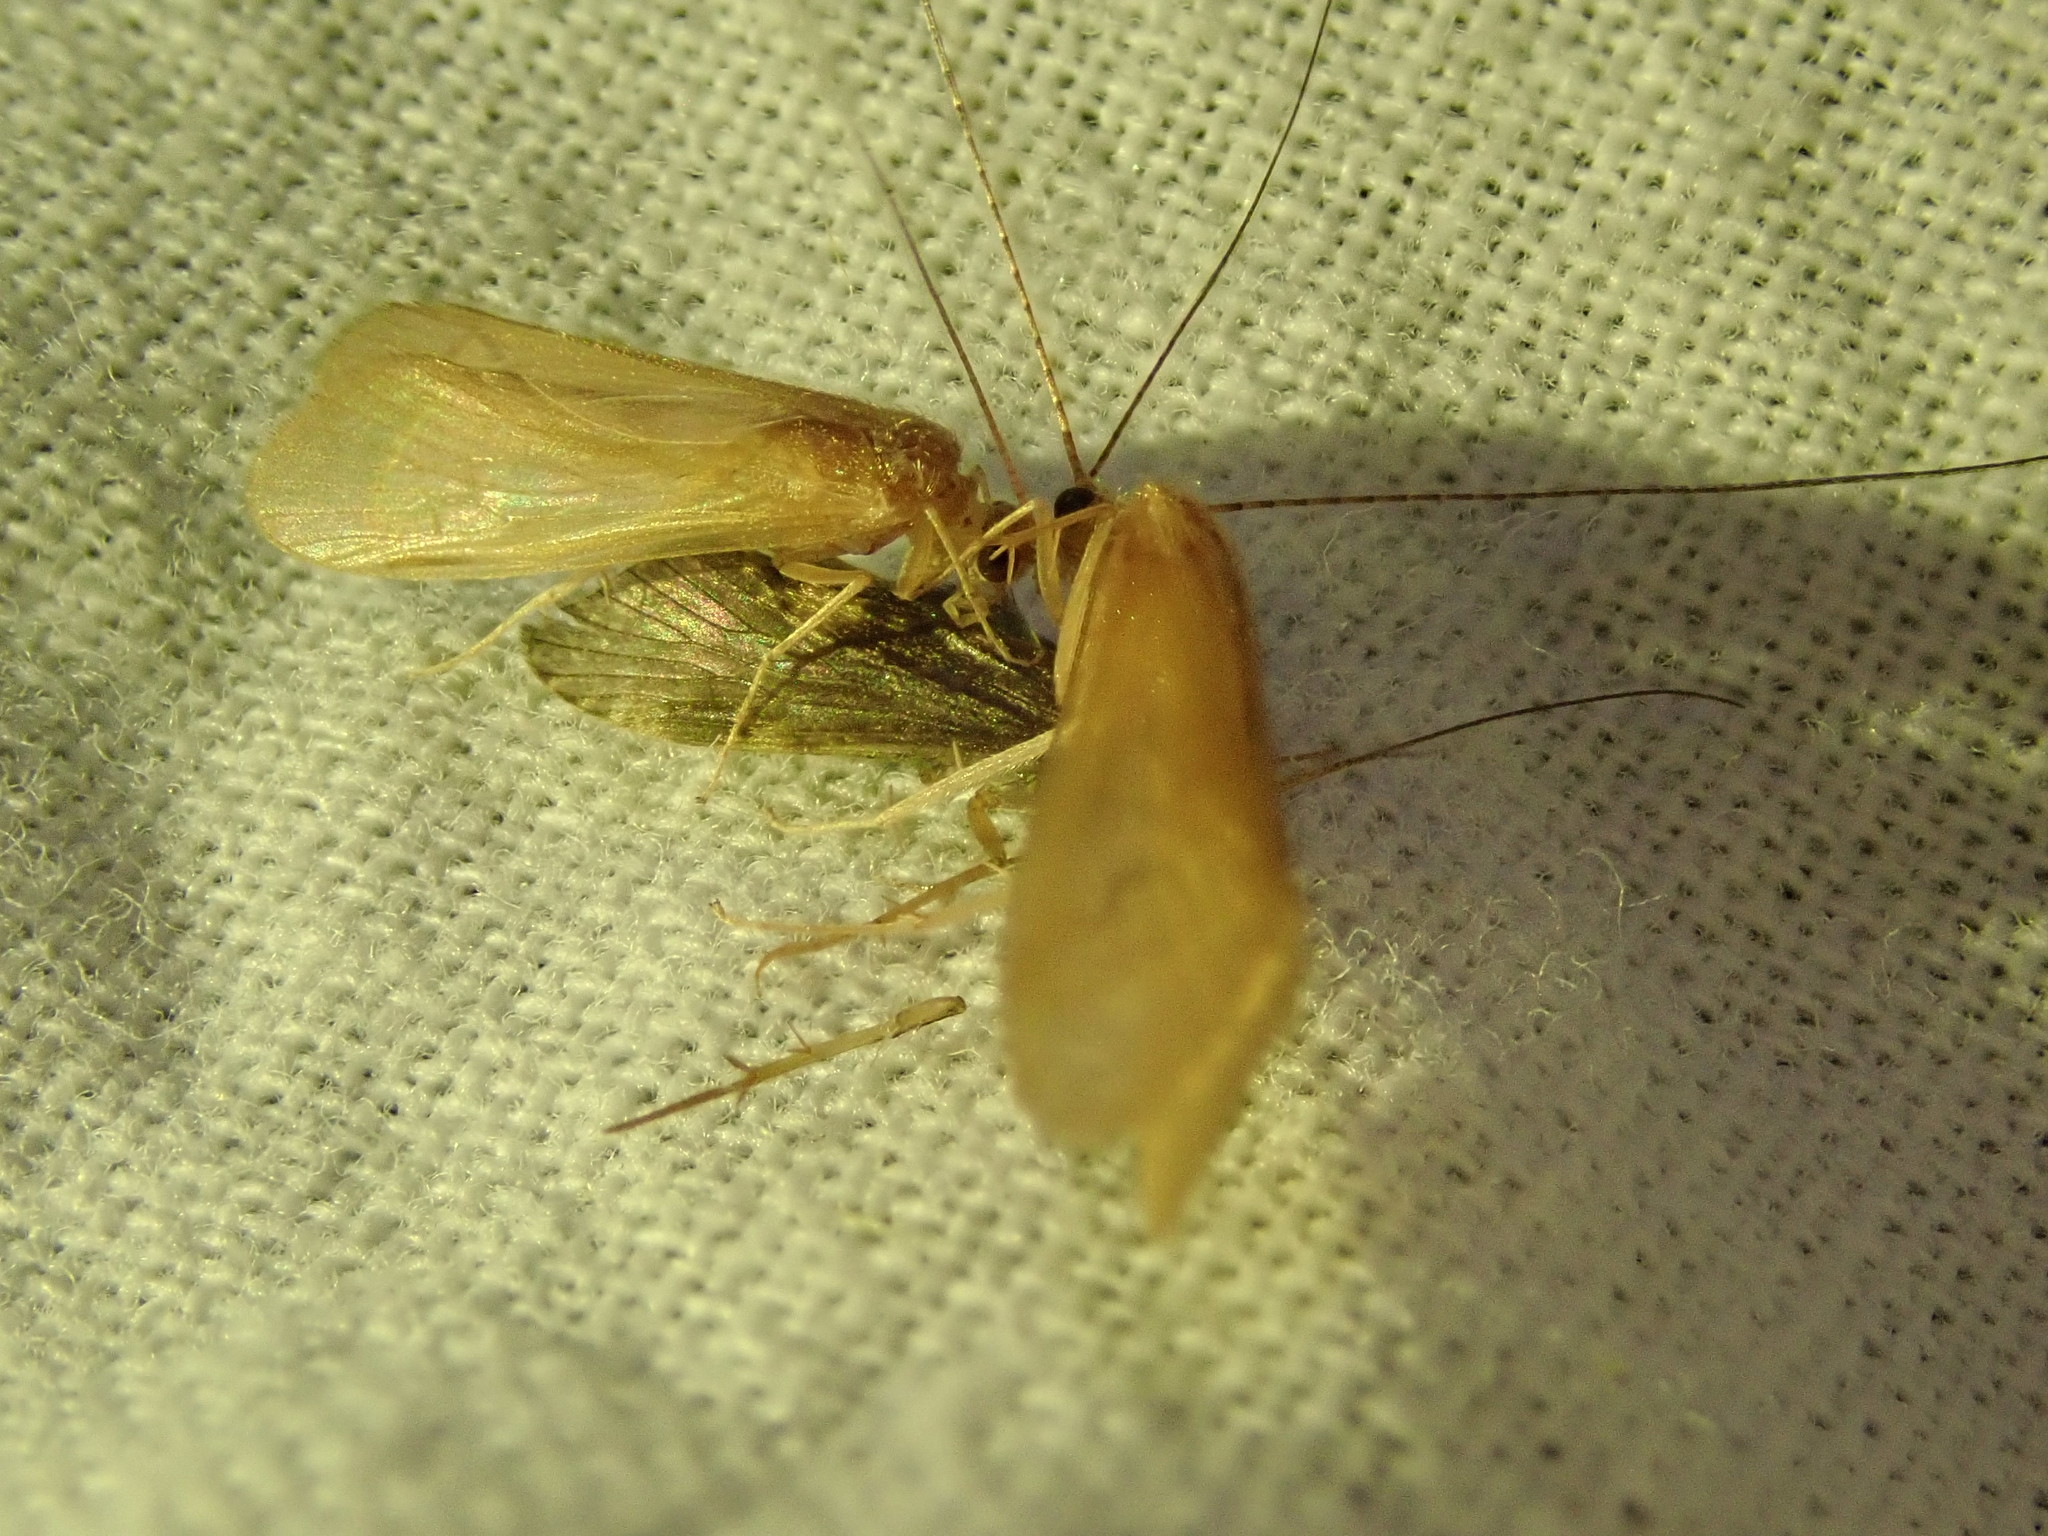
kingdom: Animalia
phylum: Arthropoda
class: Insecta
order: Trichoptera
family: Hydropsychidae
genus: Potamyia
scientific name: Potamyia flava
